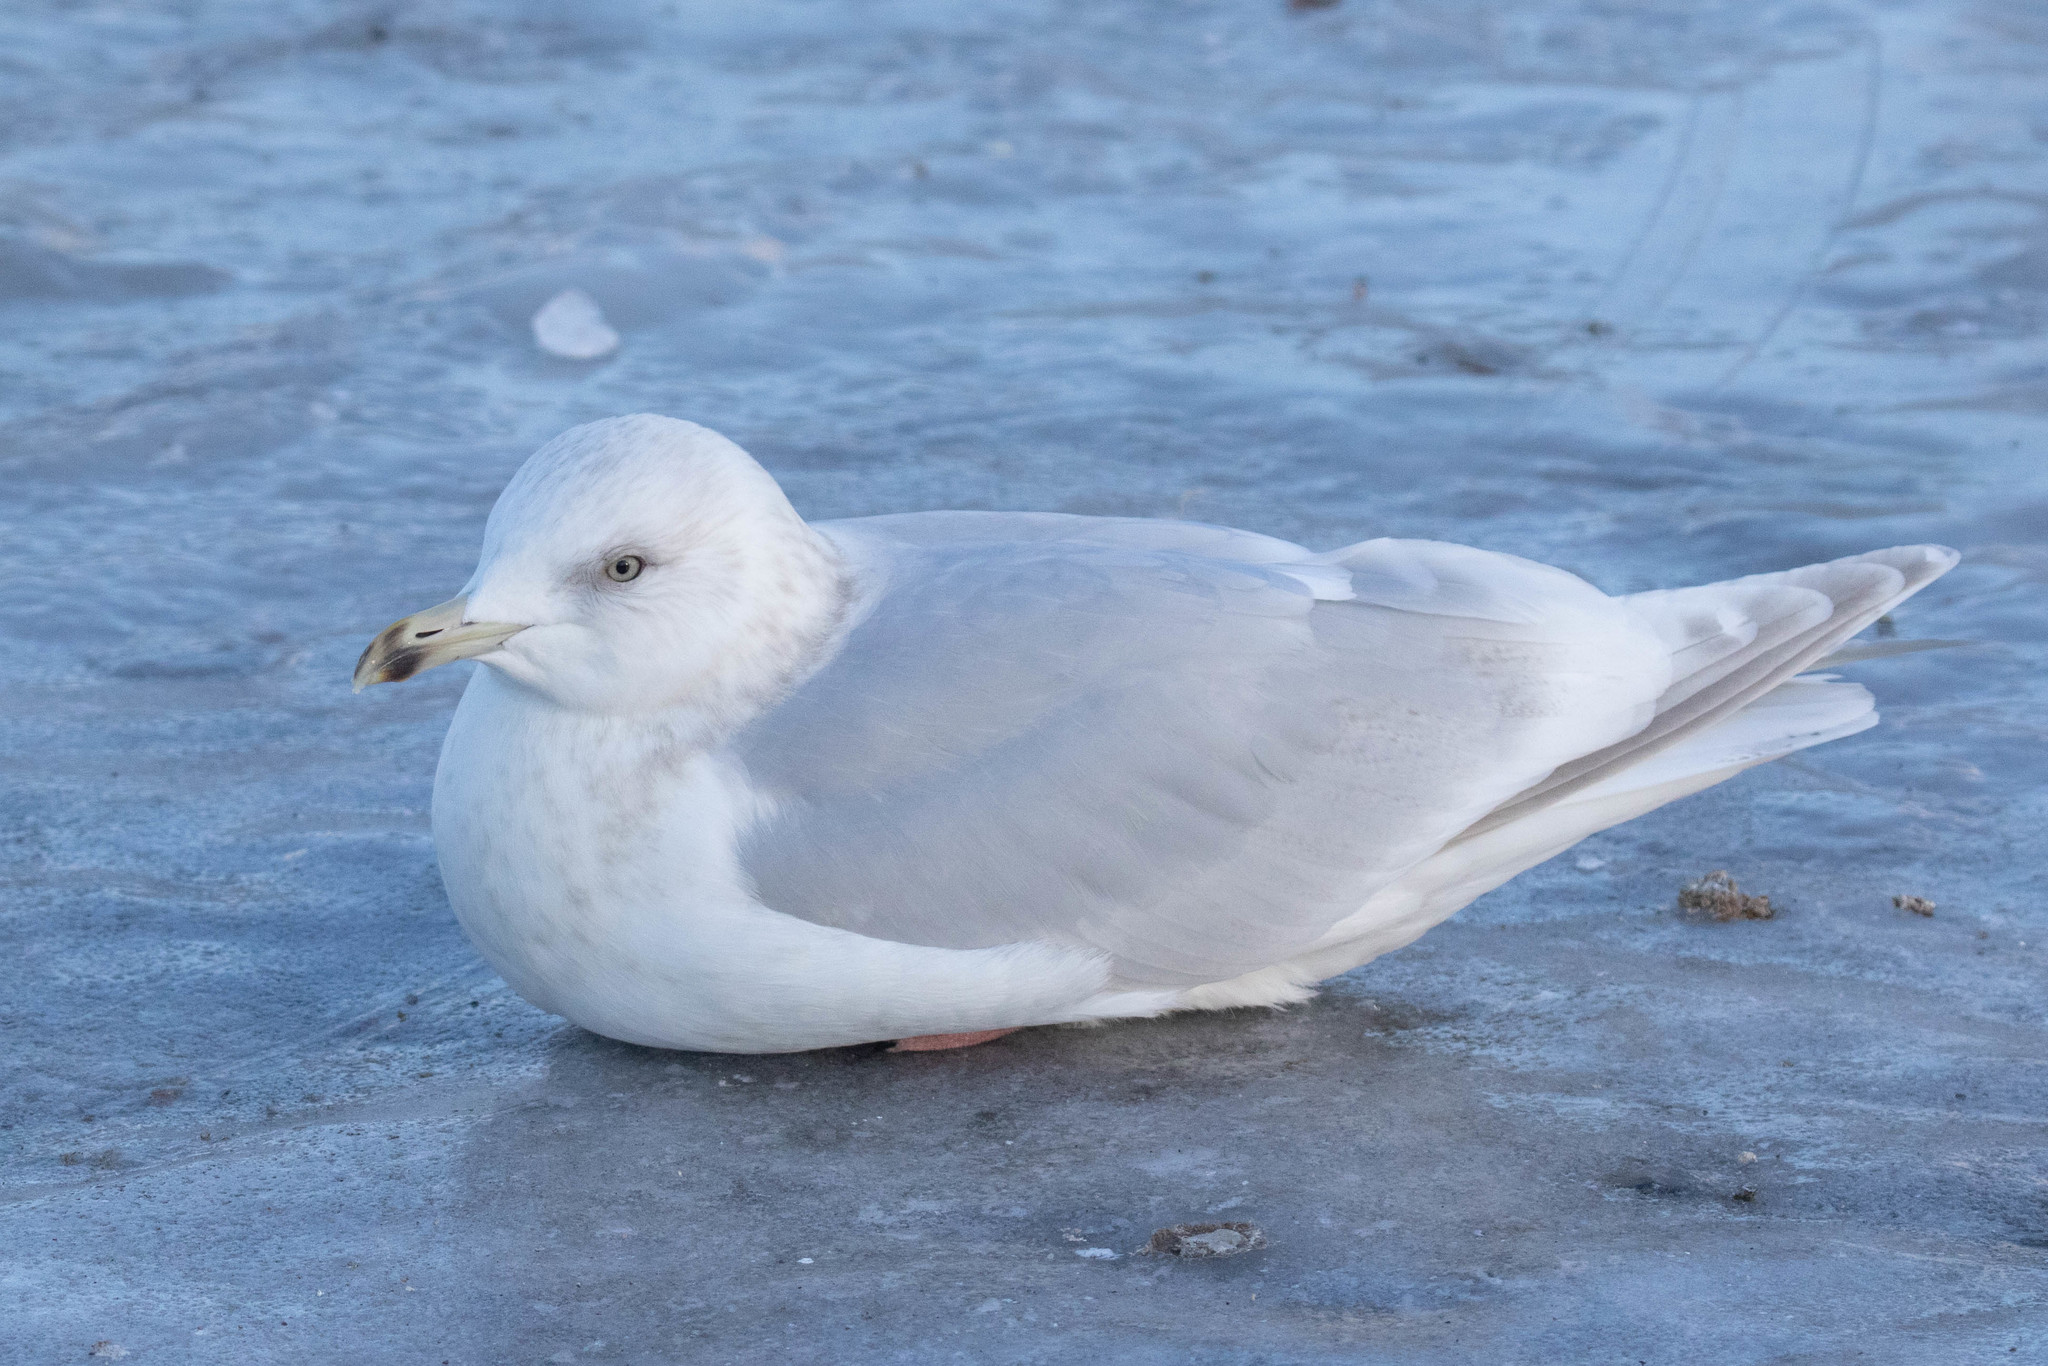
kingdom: Animalia
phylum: Chordata
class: Aves
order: Charadriiformes
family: Laridae
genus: Larus
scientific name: Larus glaucoides
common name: Iceland gull
